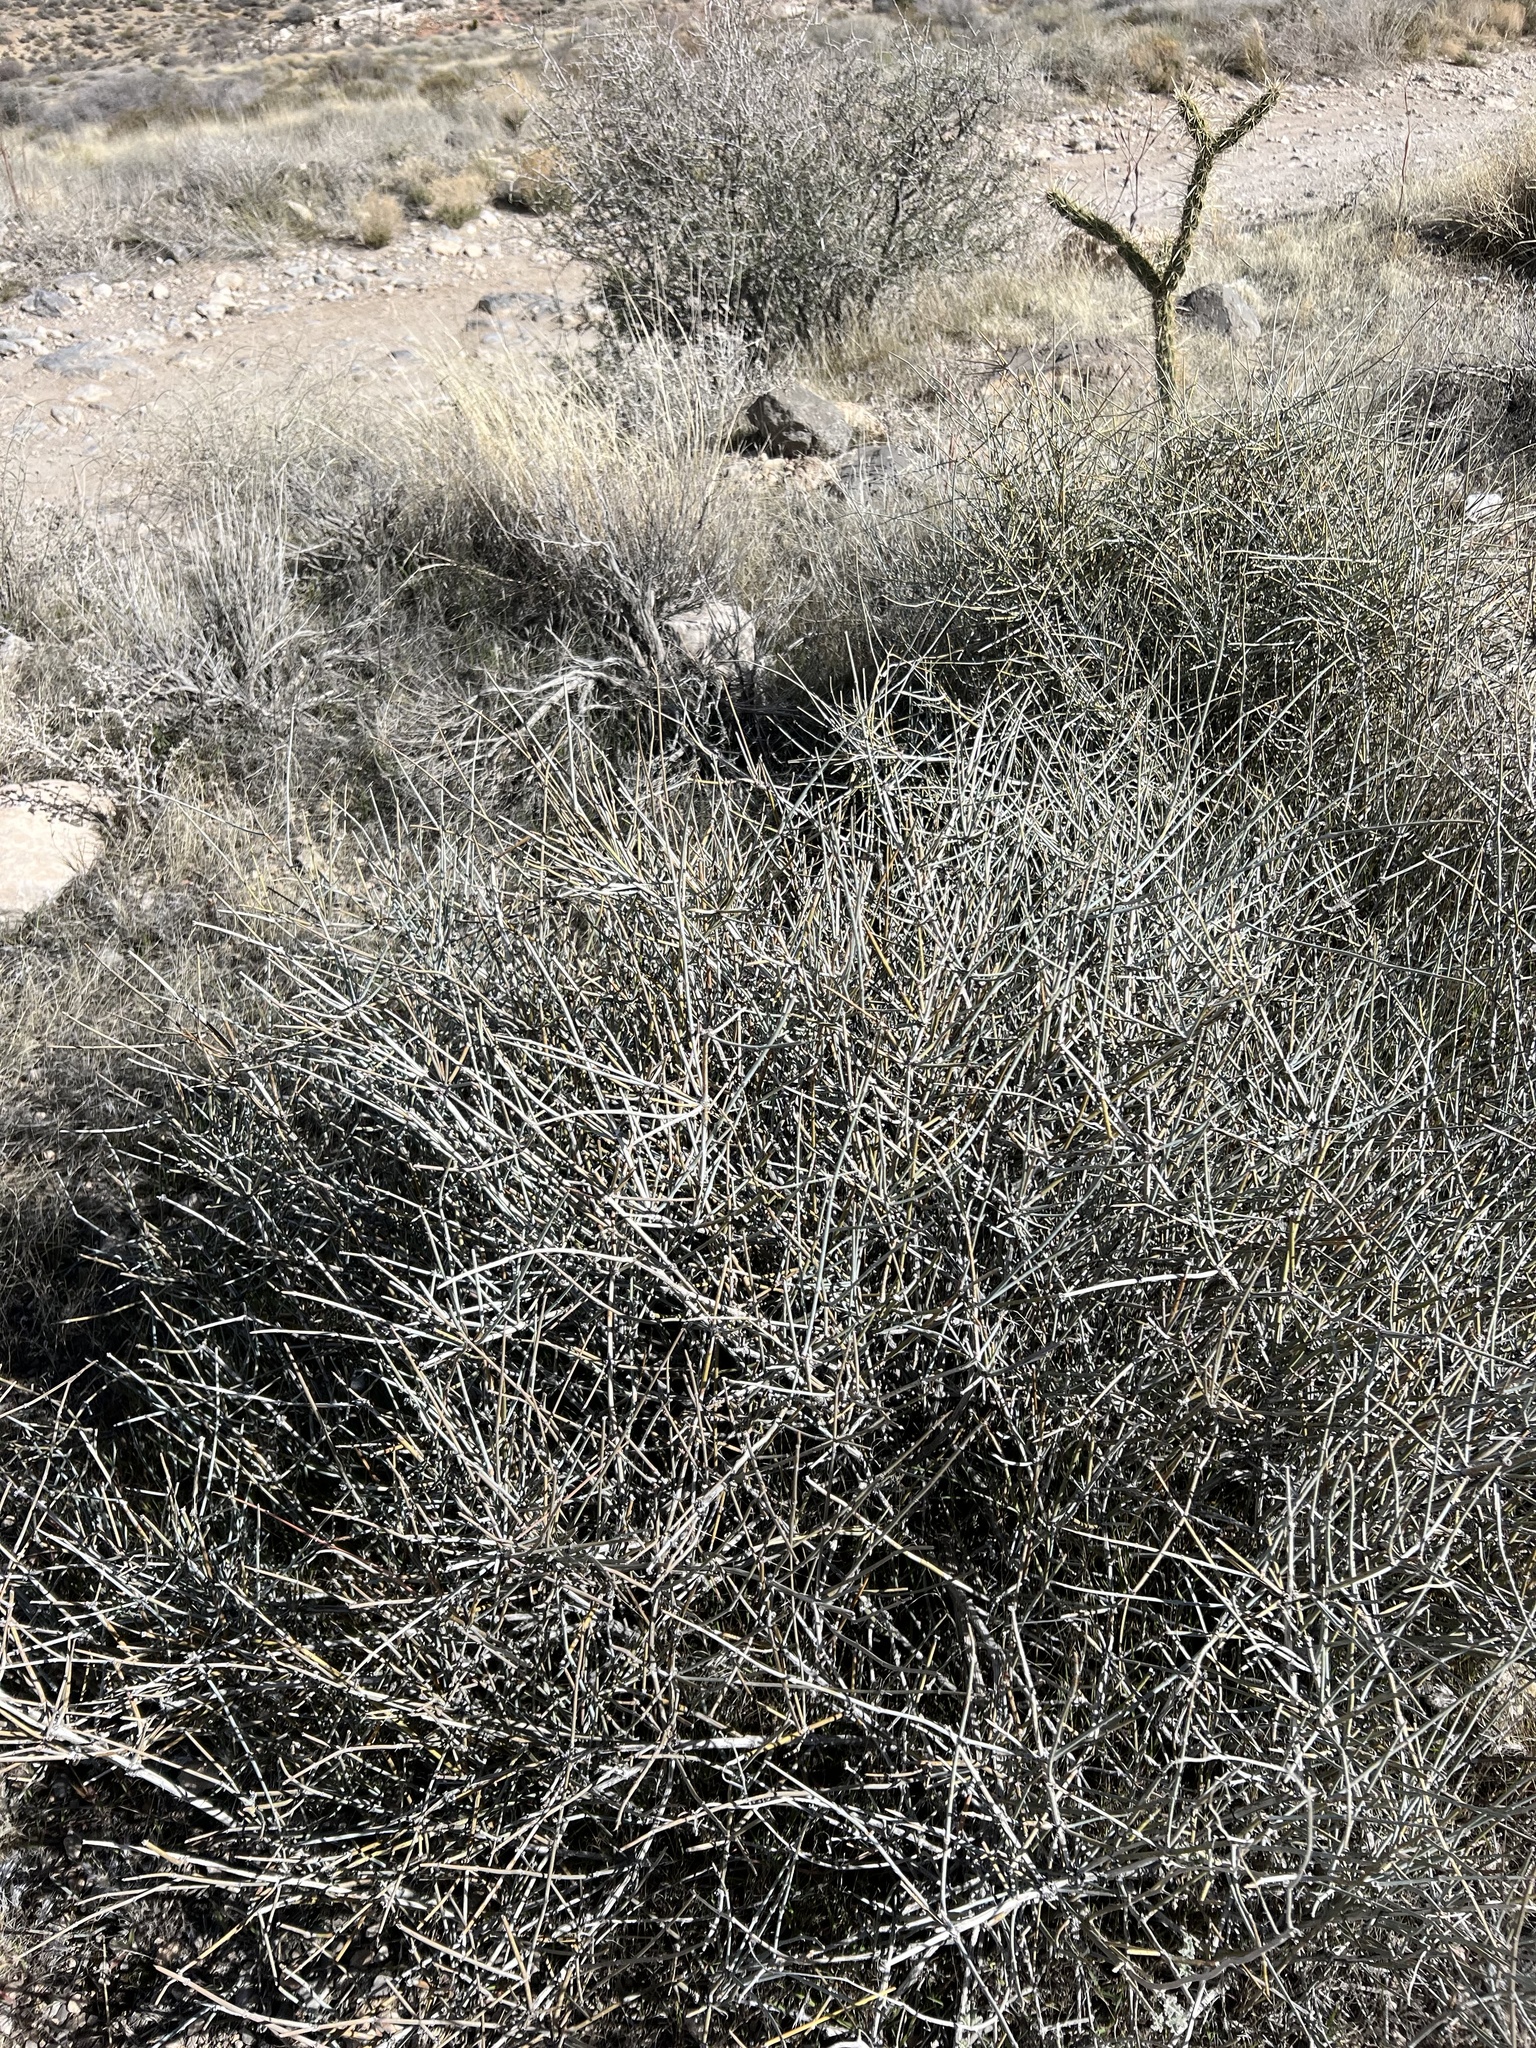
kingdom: Plantae
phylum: Tracheophyta
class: Gnetopsida
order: Ephedrales
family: Ephedraceae
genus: Ephedra
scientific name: Ephedra nevadensis
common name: Gray ephedra
